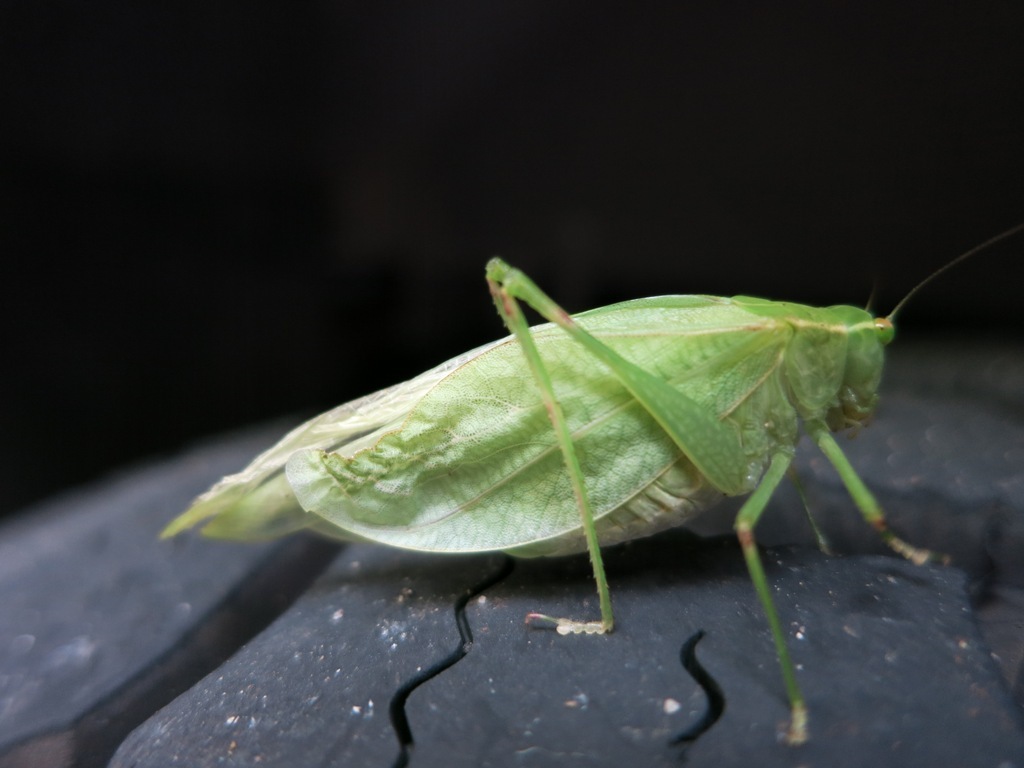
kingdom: Animalia
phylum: Arthropoda
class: Insecta
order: Orthoptera
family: Tettigoniidae
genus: Microcentrum
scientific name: Microcentrum retinerve
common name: Angular-winged katydid
